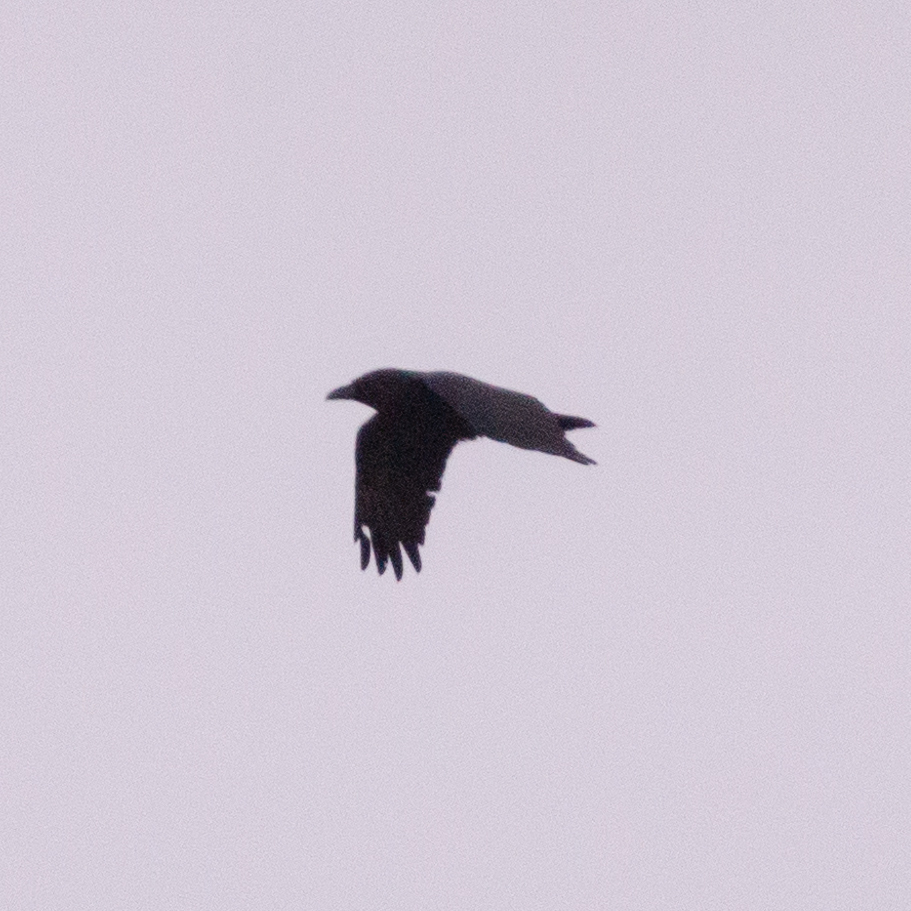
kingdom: Animalia
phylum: Chordata
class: Aves
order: Passeriformes
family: Corvidae
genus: Corvus
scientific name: Corvus corone
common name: Carrion crow
